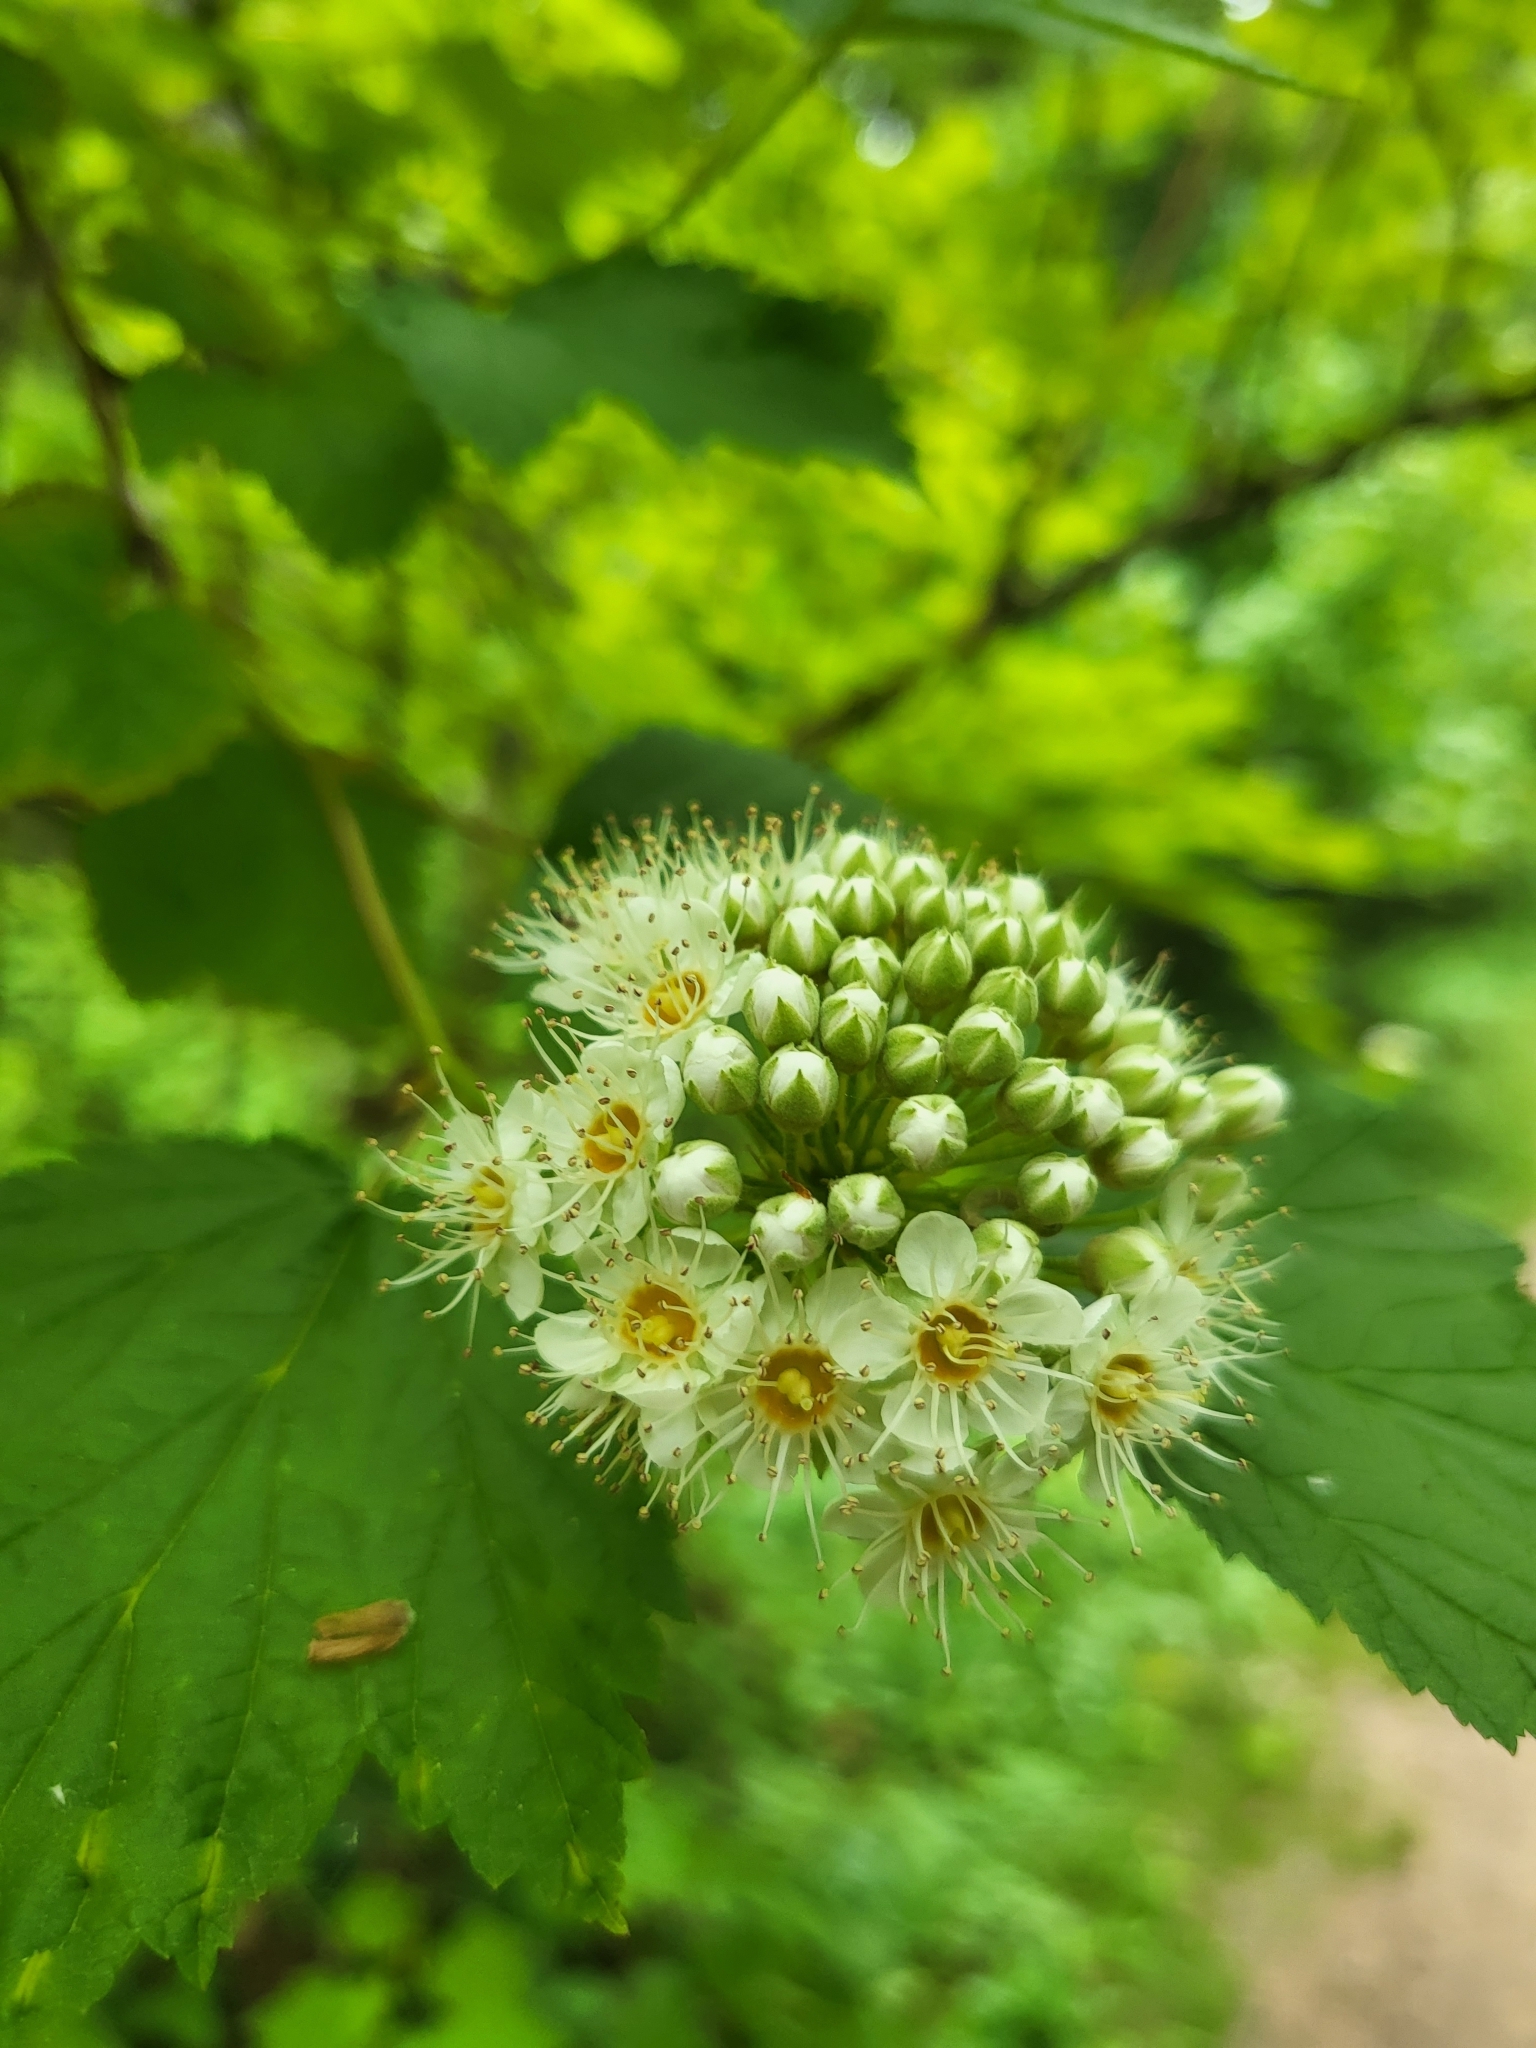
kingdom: Plantae
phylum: Tracheophyta
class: Magnoliopsida
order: Rosales
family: Rosaceae
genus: Physocarpus
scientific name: Physocarpus capitatus
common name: Pacific ninebark
